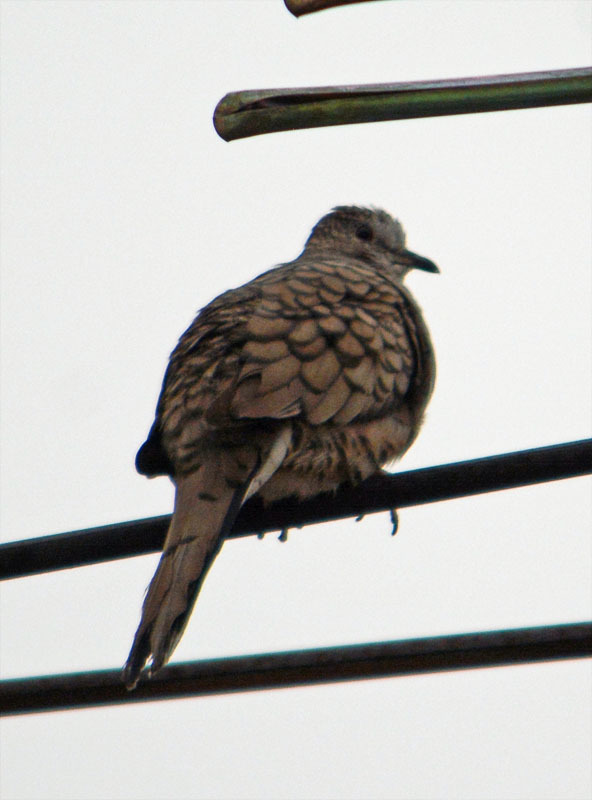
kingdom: Animalia
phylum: Chordata
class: Aves
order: Columbiformes
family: Columbidae
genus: Columbina
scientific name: Columbina inca
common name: Inca dove
